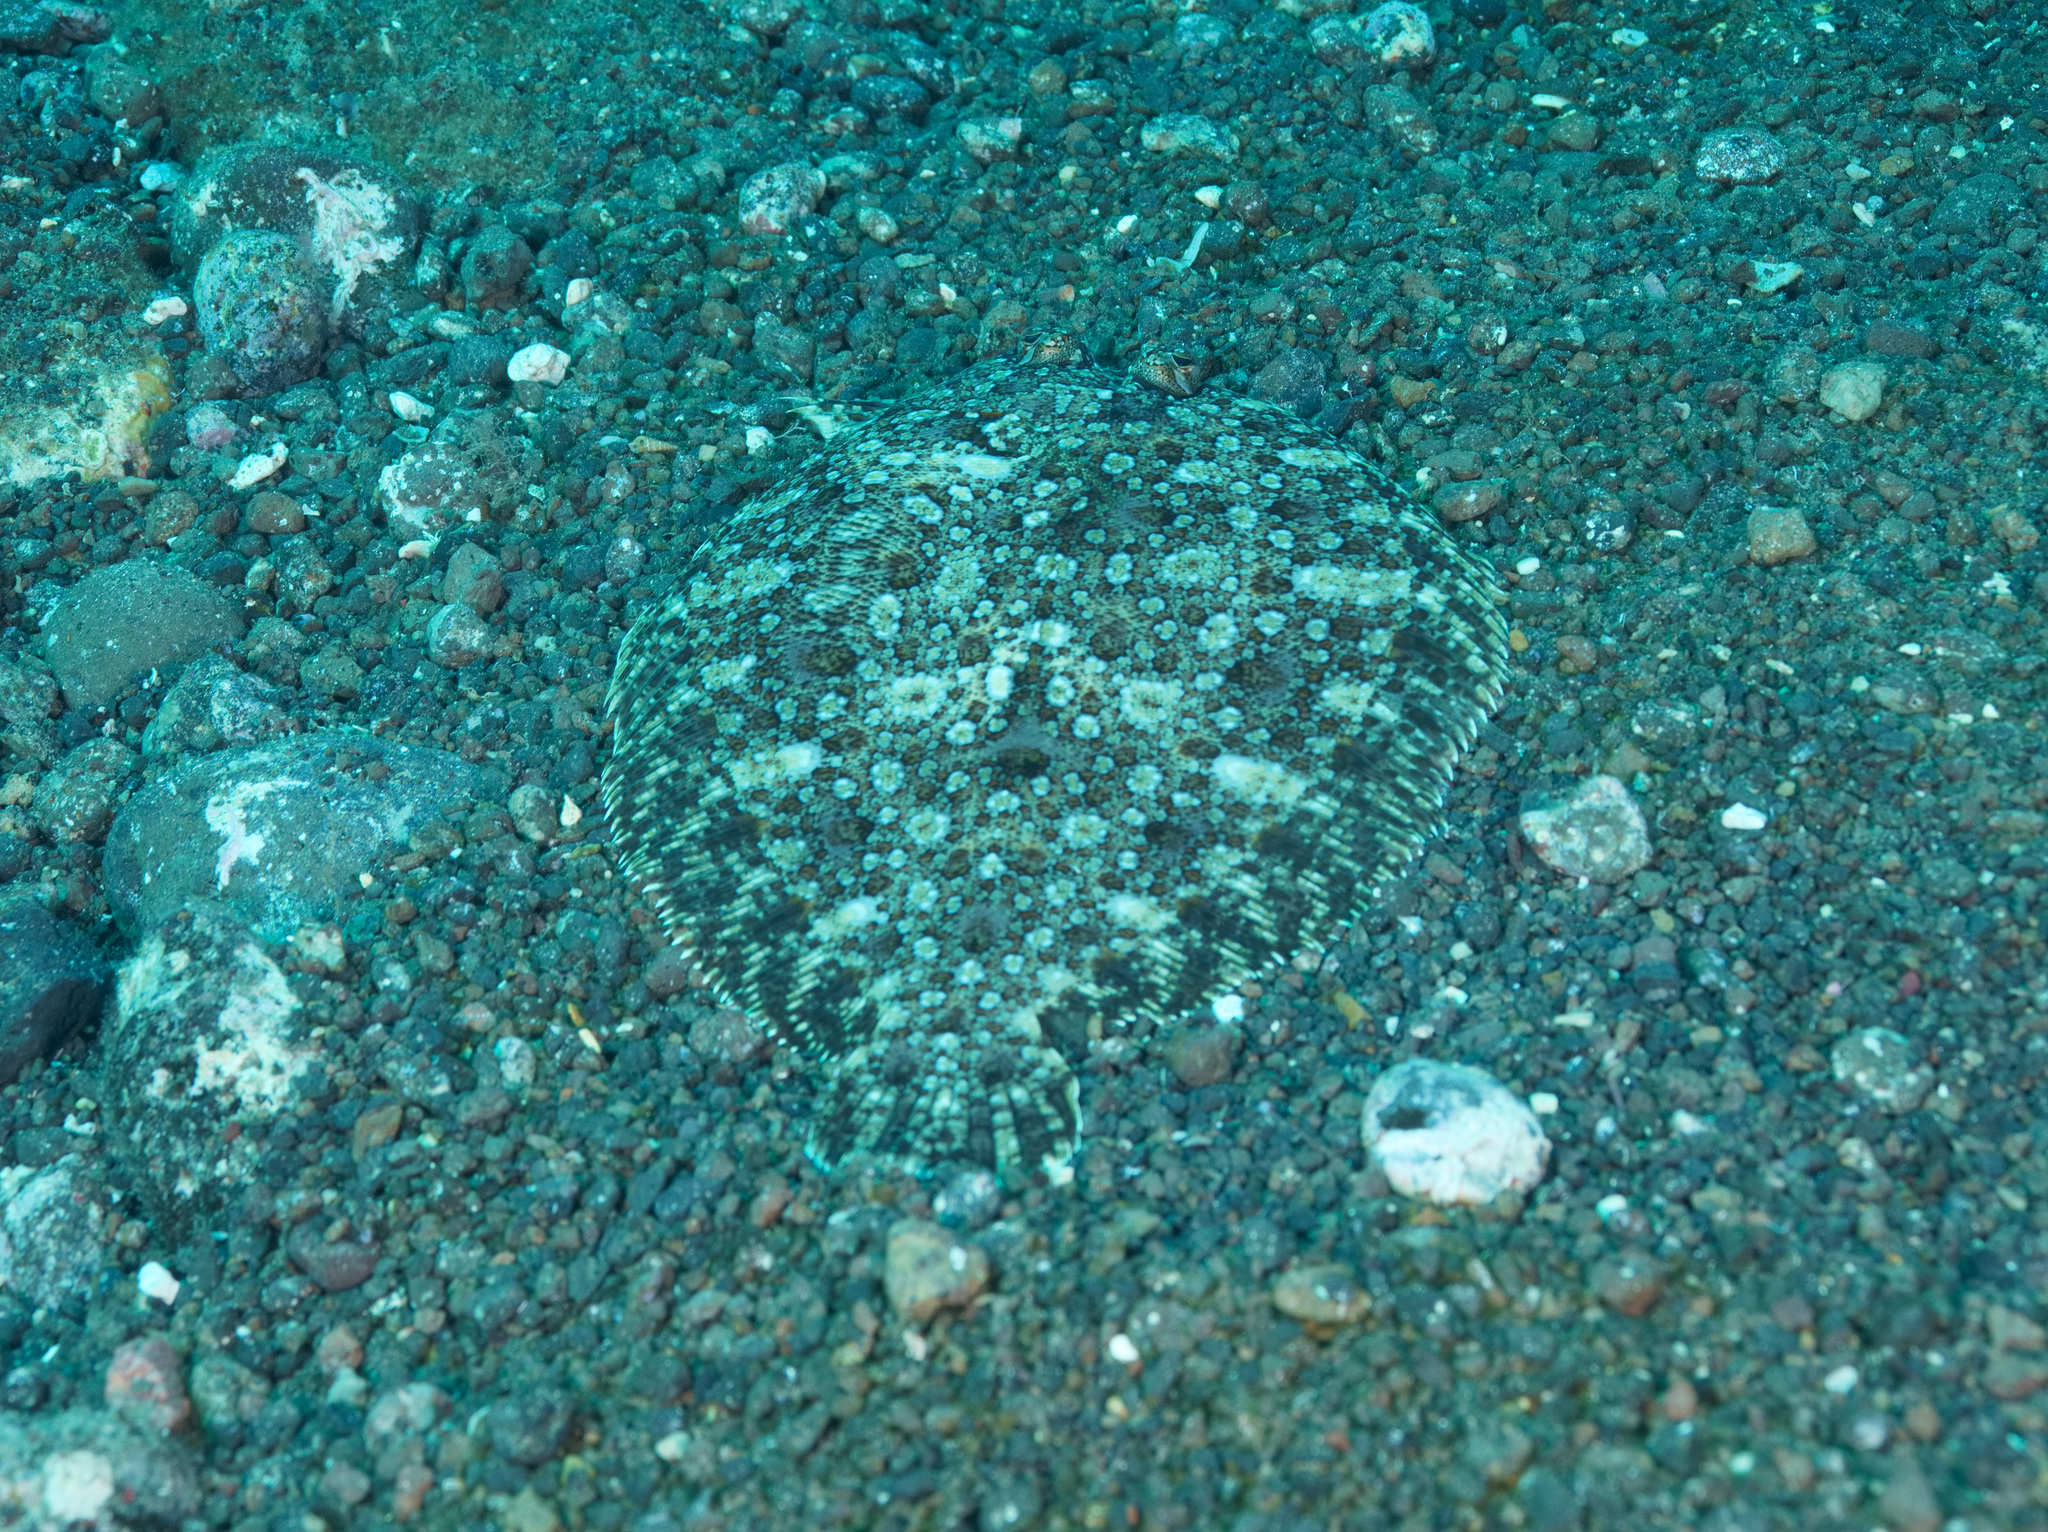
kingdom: Animalia
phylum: Chordata
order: Pleuronectiformes
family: Bothidae
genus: Bothus
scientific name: Bothus podas
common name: Wide-eyed flounder
